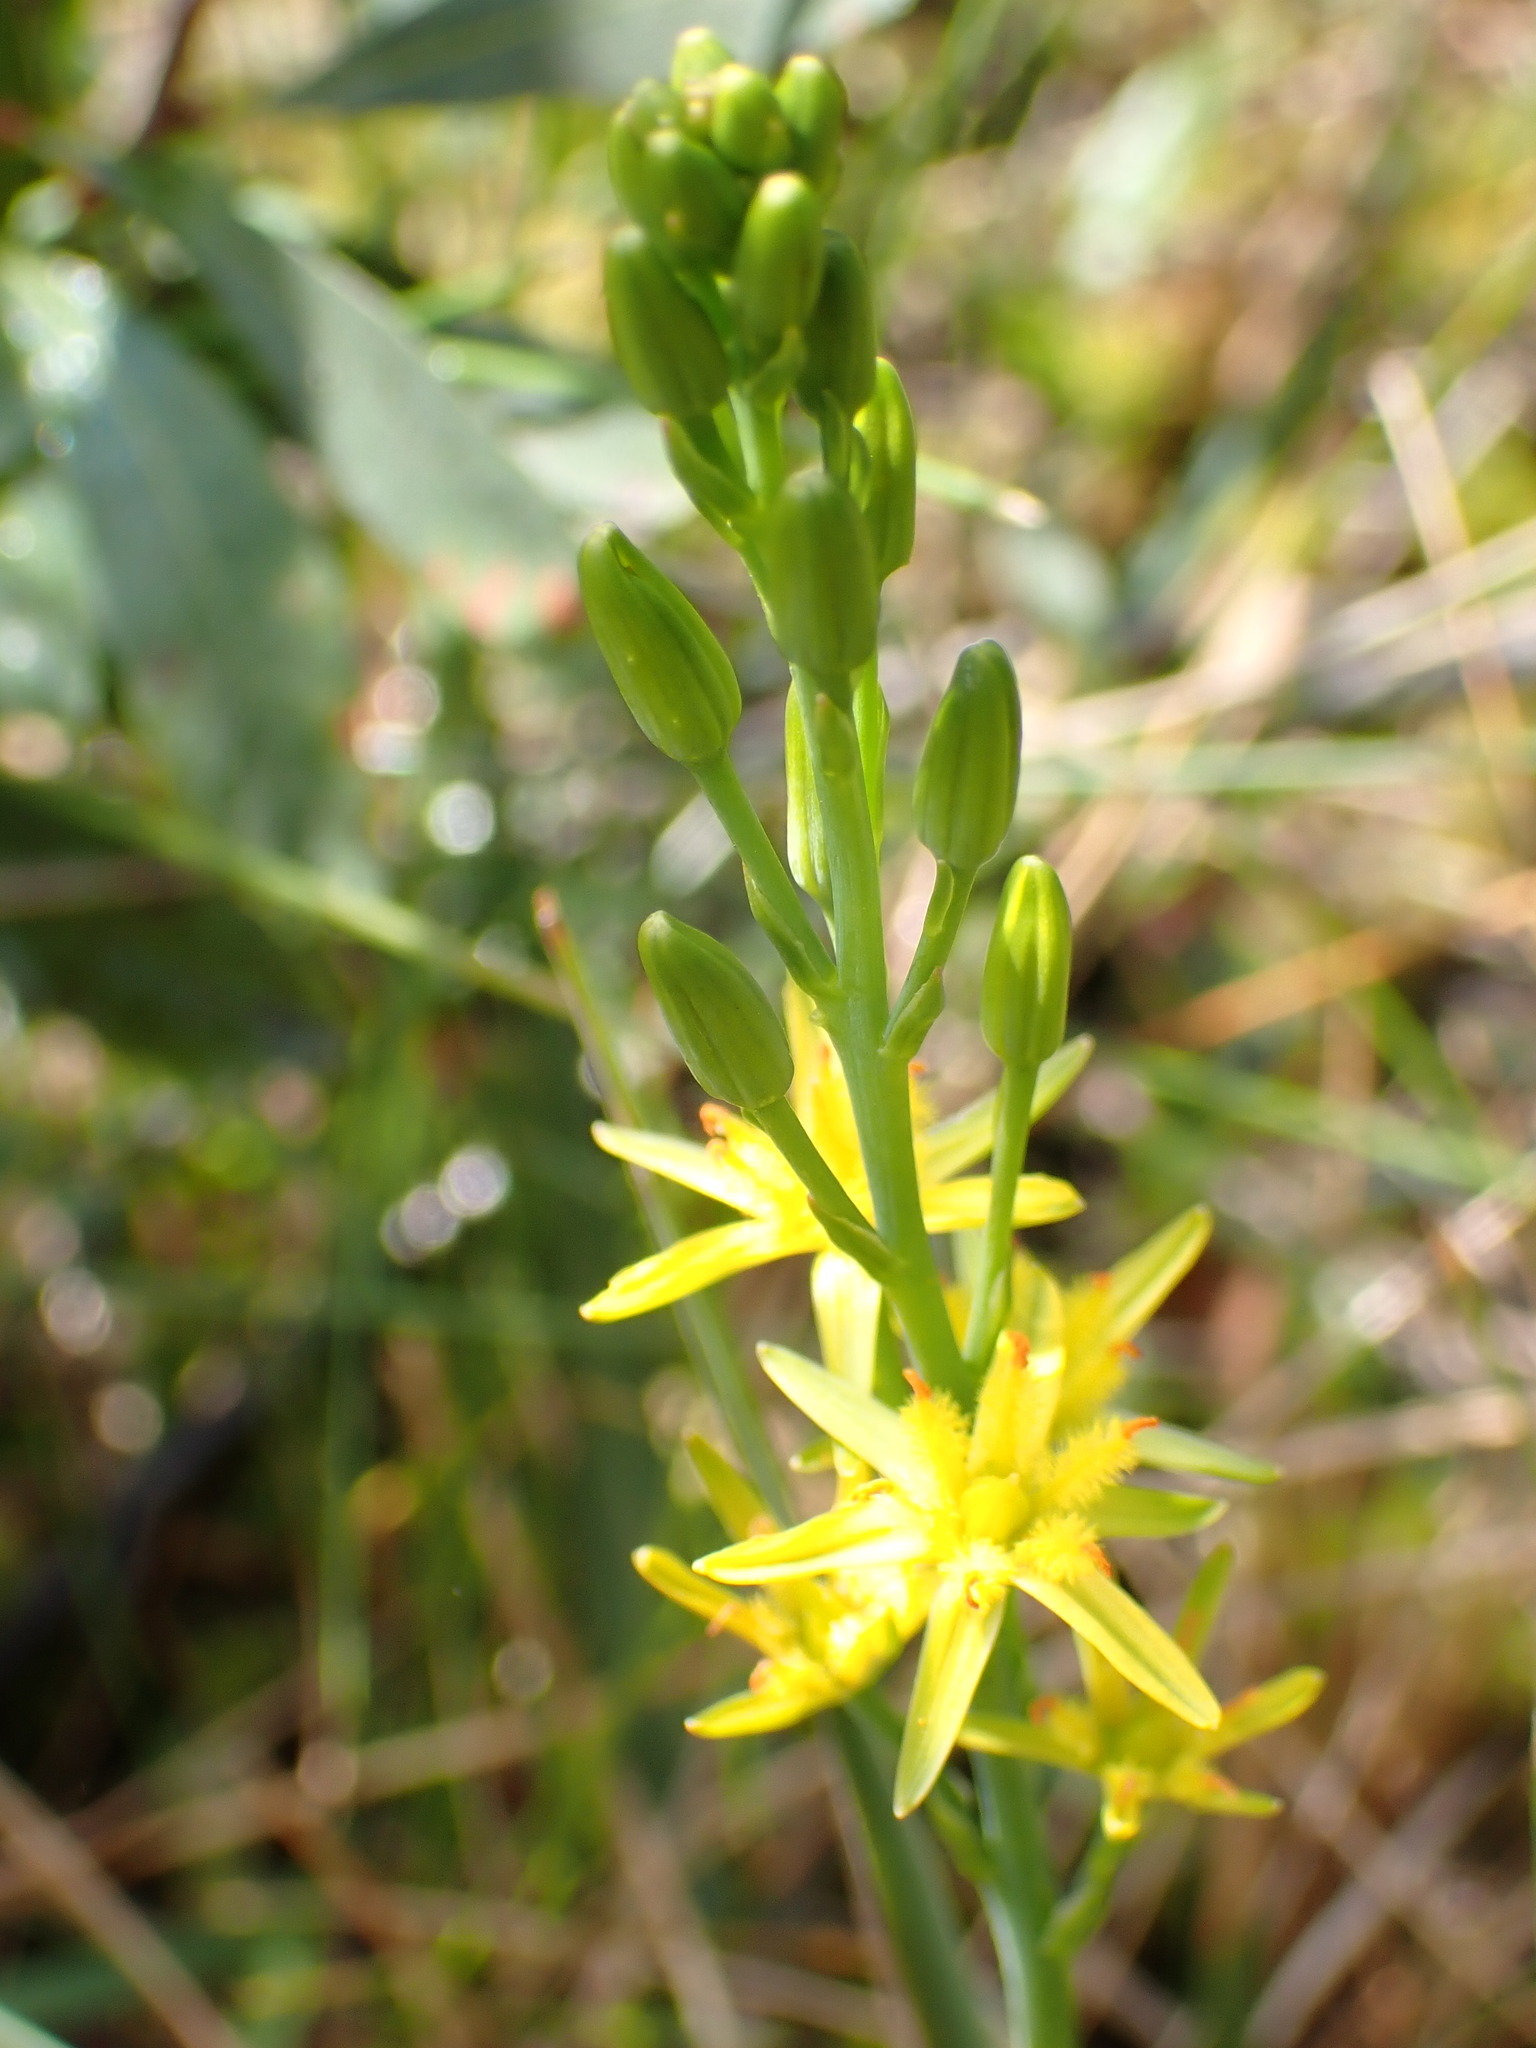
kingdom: Plantae
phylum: Tracheophyta
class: Liliopsida
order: Dioscoreales
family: Nartheciaceae
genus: Narthecium
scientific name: Narthecium ossifragum
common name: Bog asphodel
